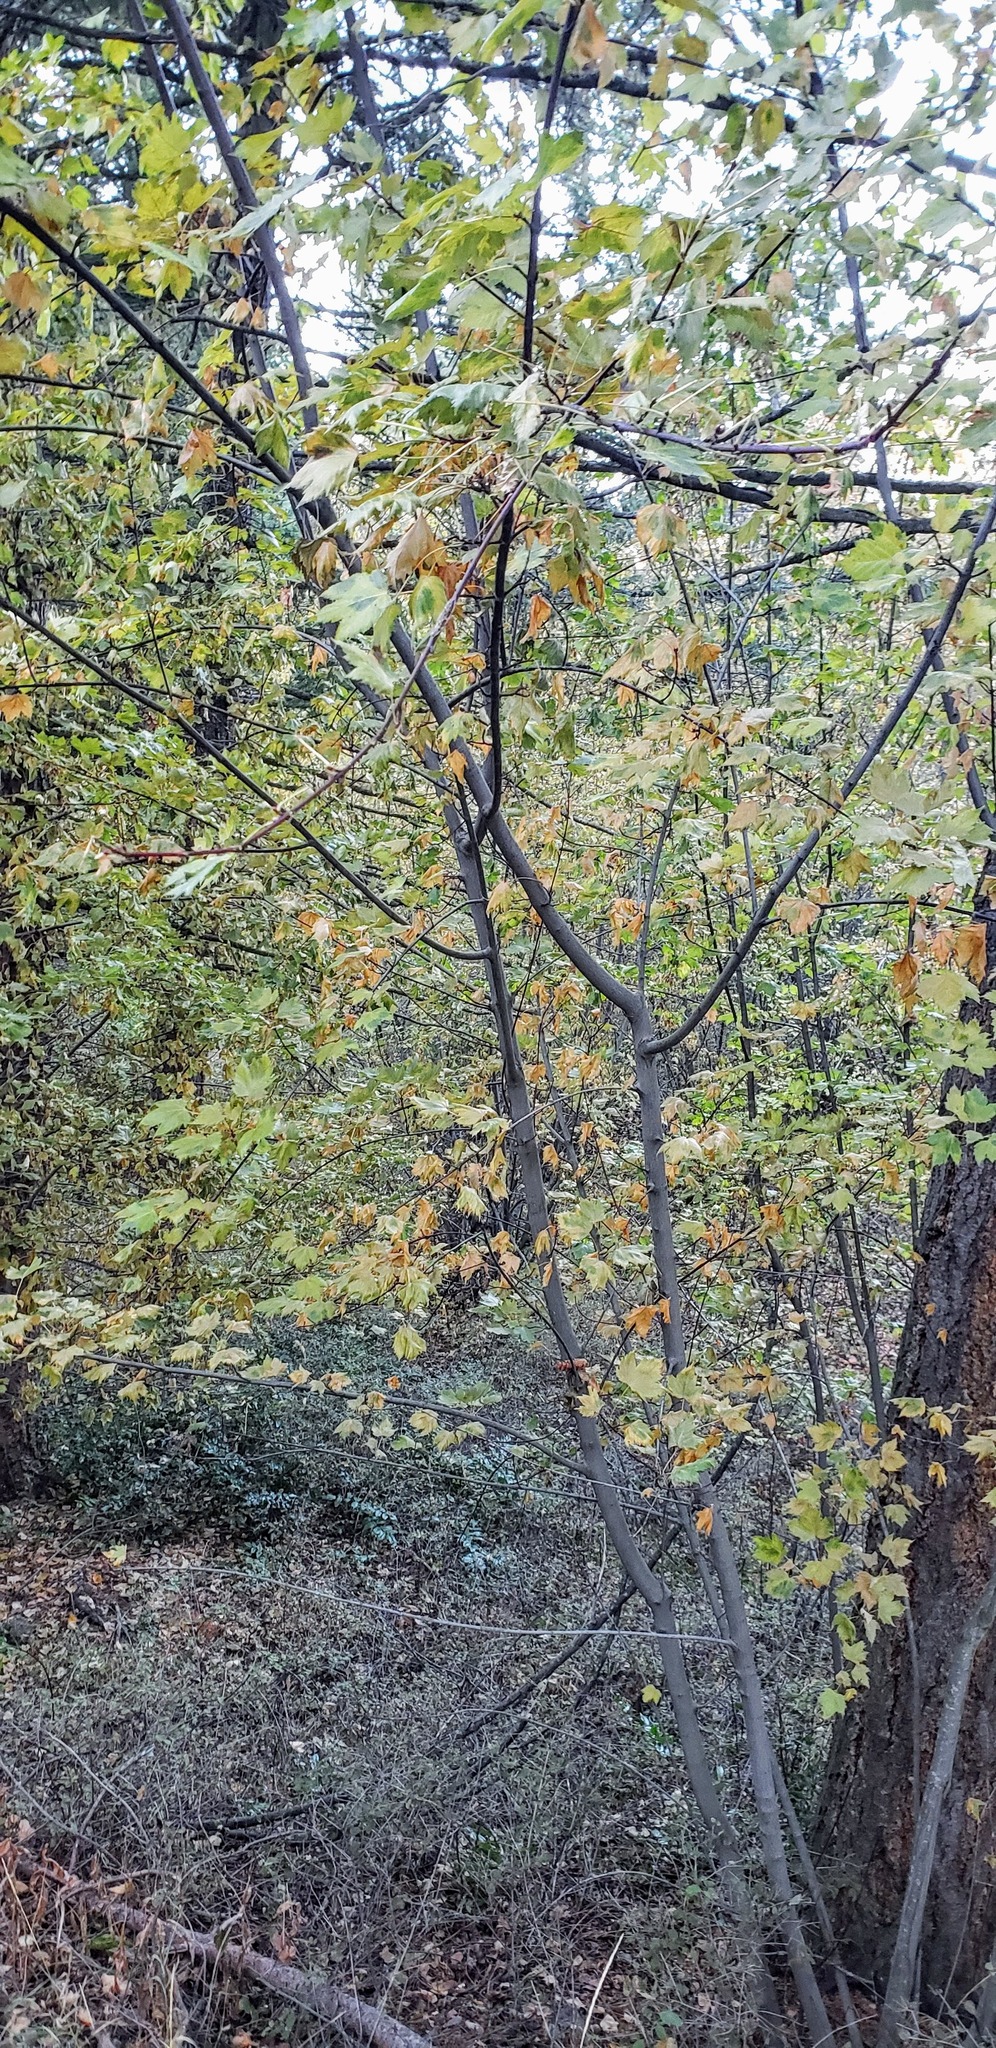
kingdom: Plantae
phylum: Tracheophyta
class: Magnoliopsida
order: Sapindales
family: Sapindaceae
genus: Acer
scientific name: Acer glabrum
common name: Rocky mountain maple
